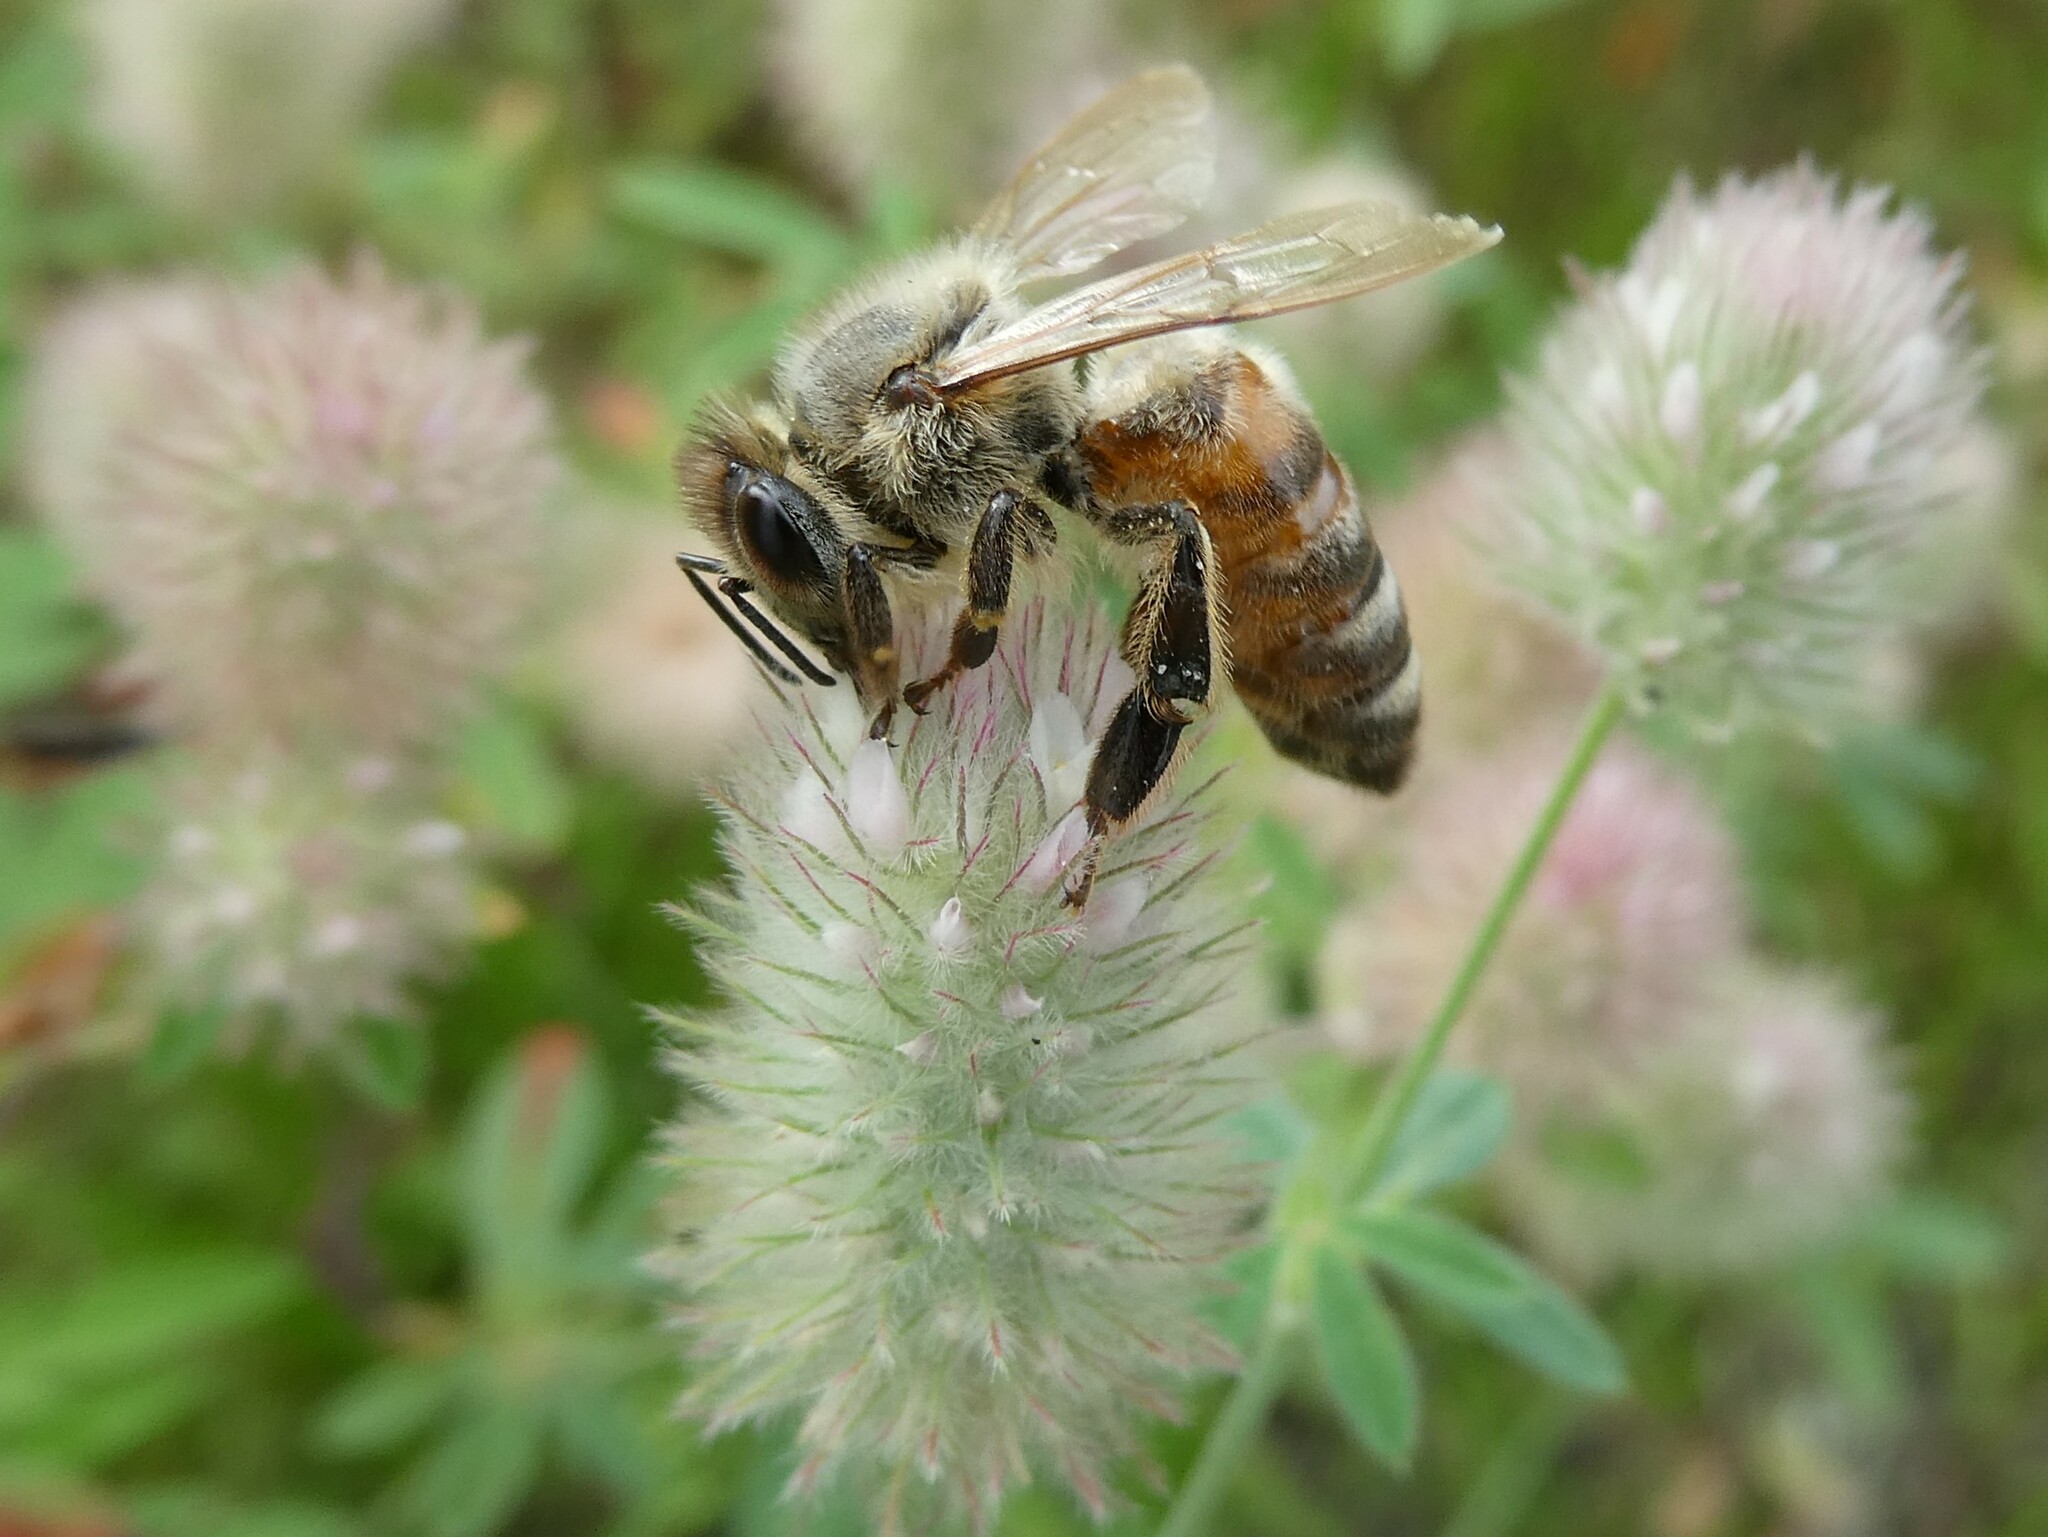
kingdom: Animalia
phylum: Arthropoda
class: Insecta
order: Hymenoptera
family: Apidae
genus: Apis
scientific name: Apis mellifera
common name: Honey bee
